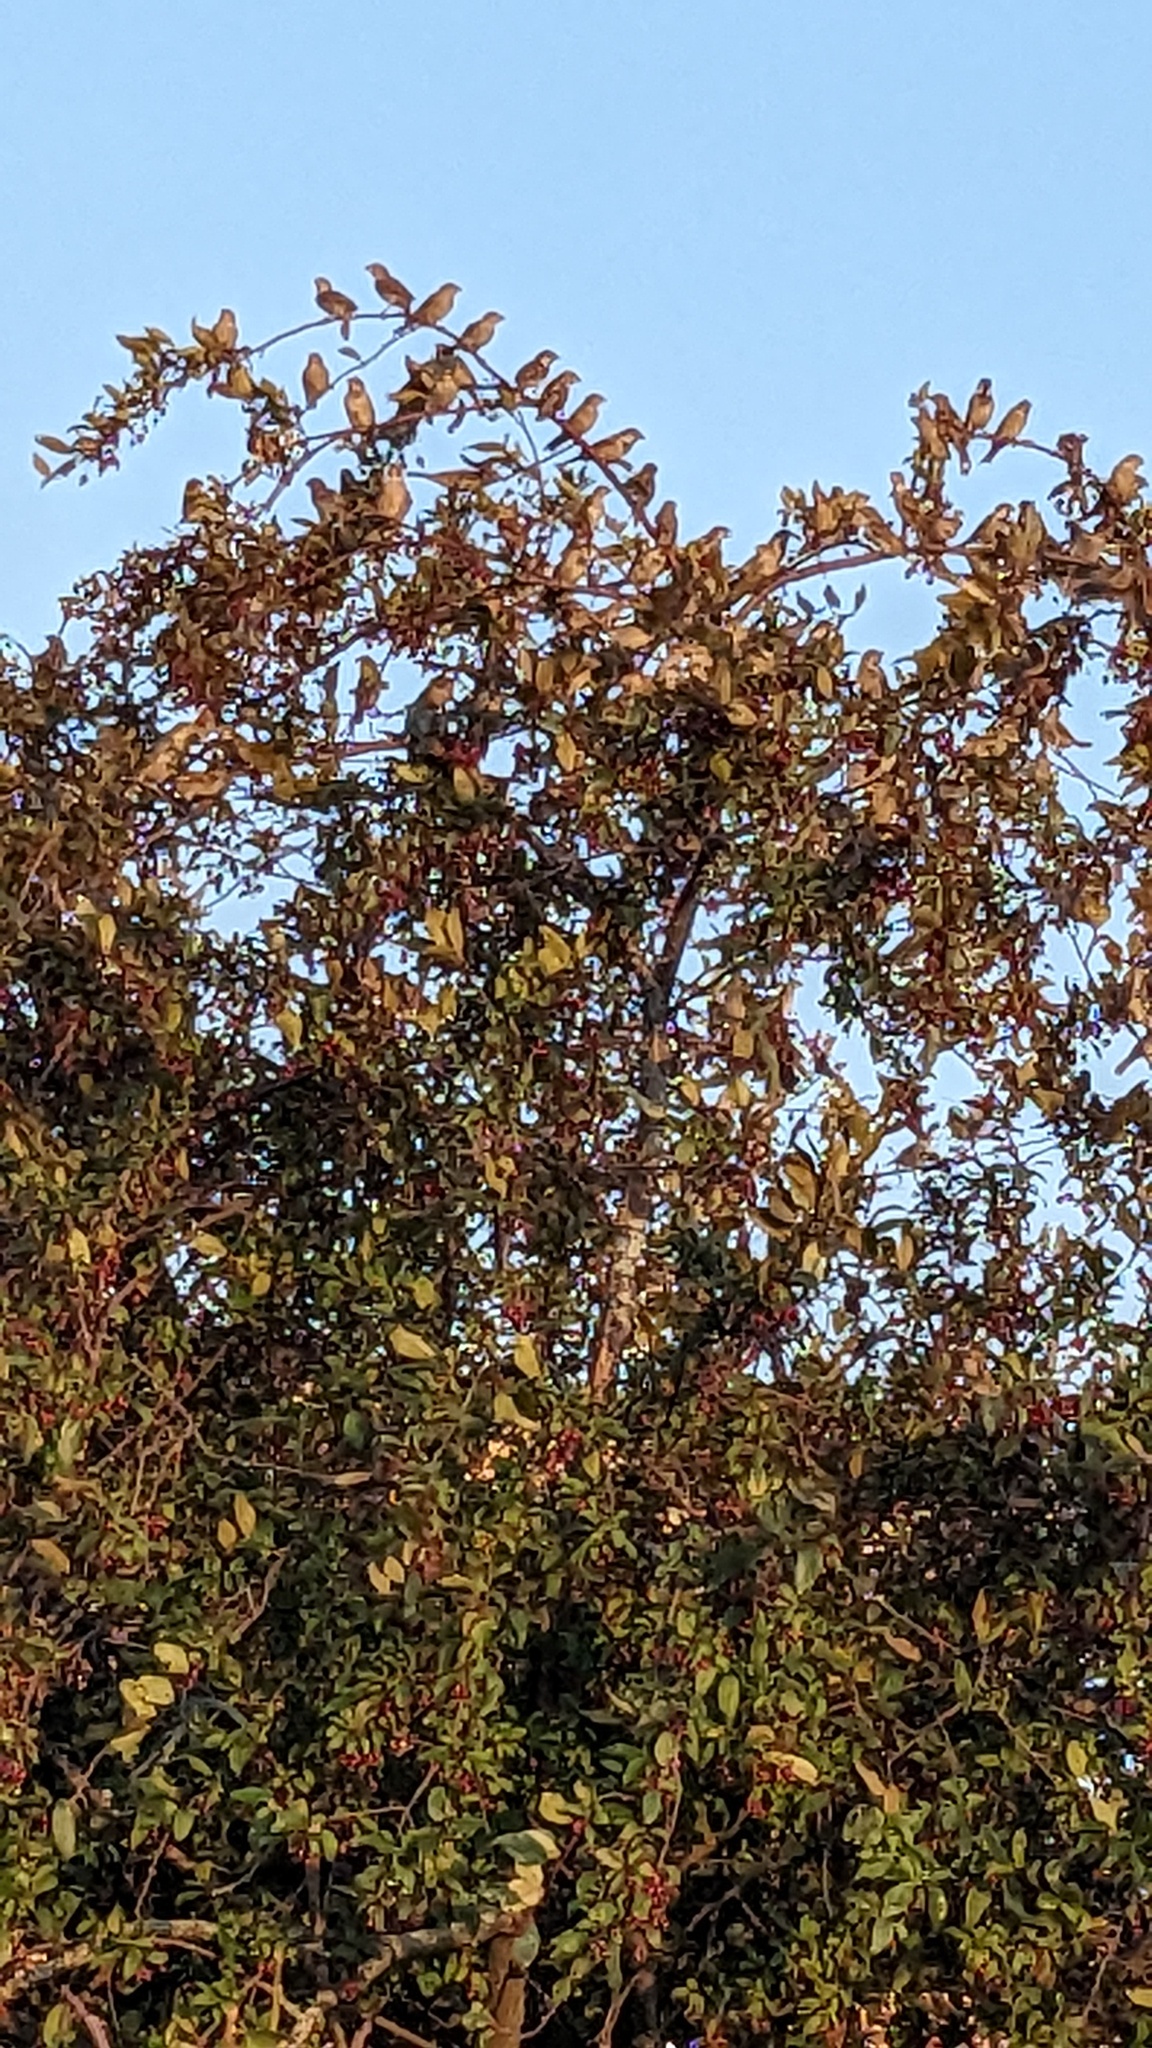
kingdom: Animalia
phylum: Chordata
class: Aves
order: Passeriformes
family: Passeridae
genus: Passer
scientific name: Passer domesticus
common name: House sparrow
